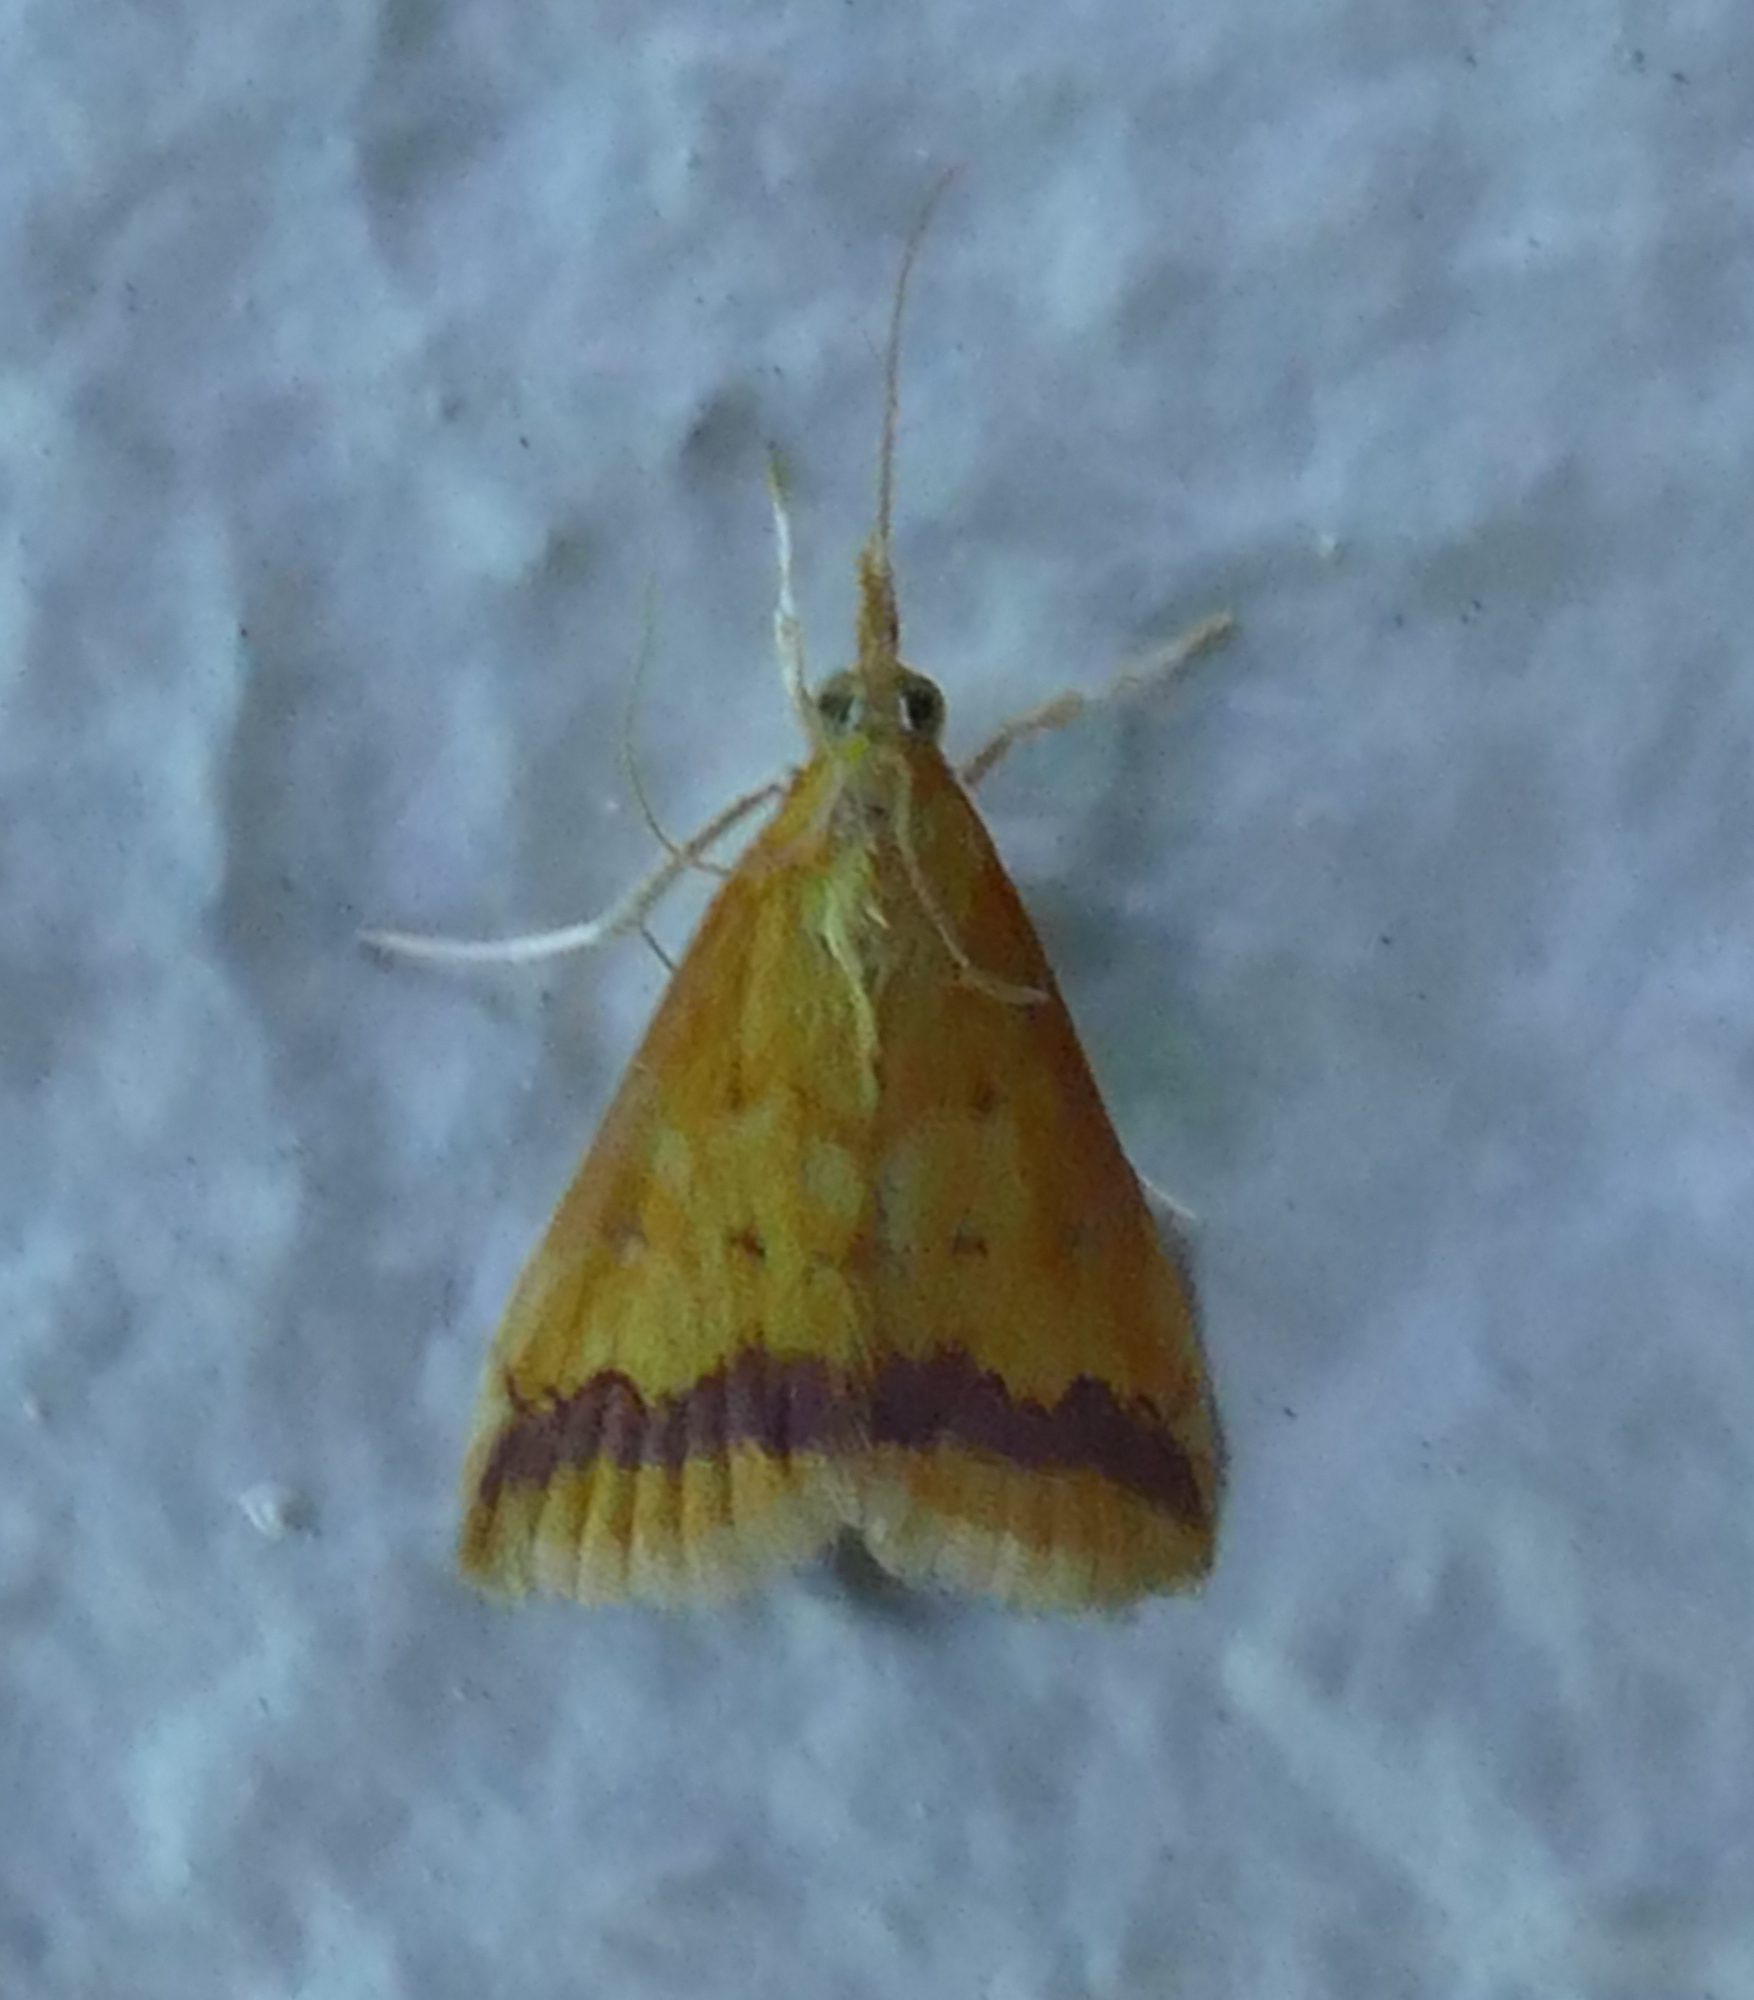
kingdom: Animalia
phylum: Arthropoda
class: Insecta
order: Lepidoptera
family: Crambidae
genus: Hyalorista
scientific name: Hyalorista taeniolalis
